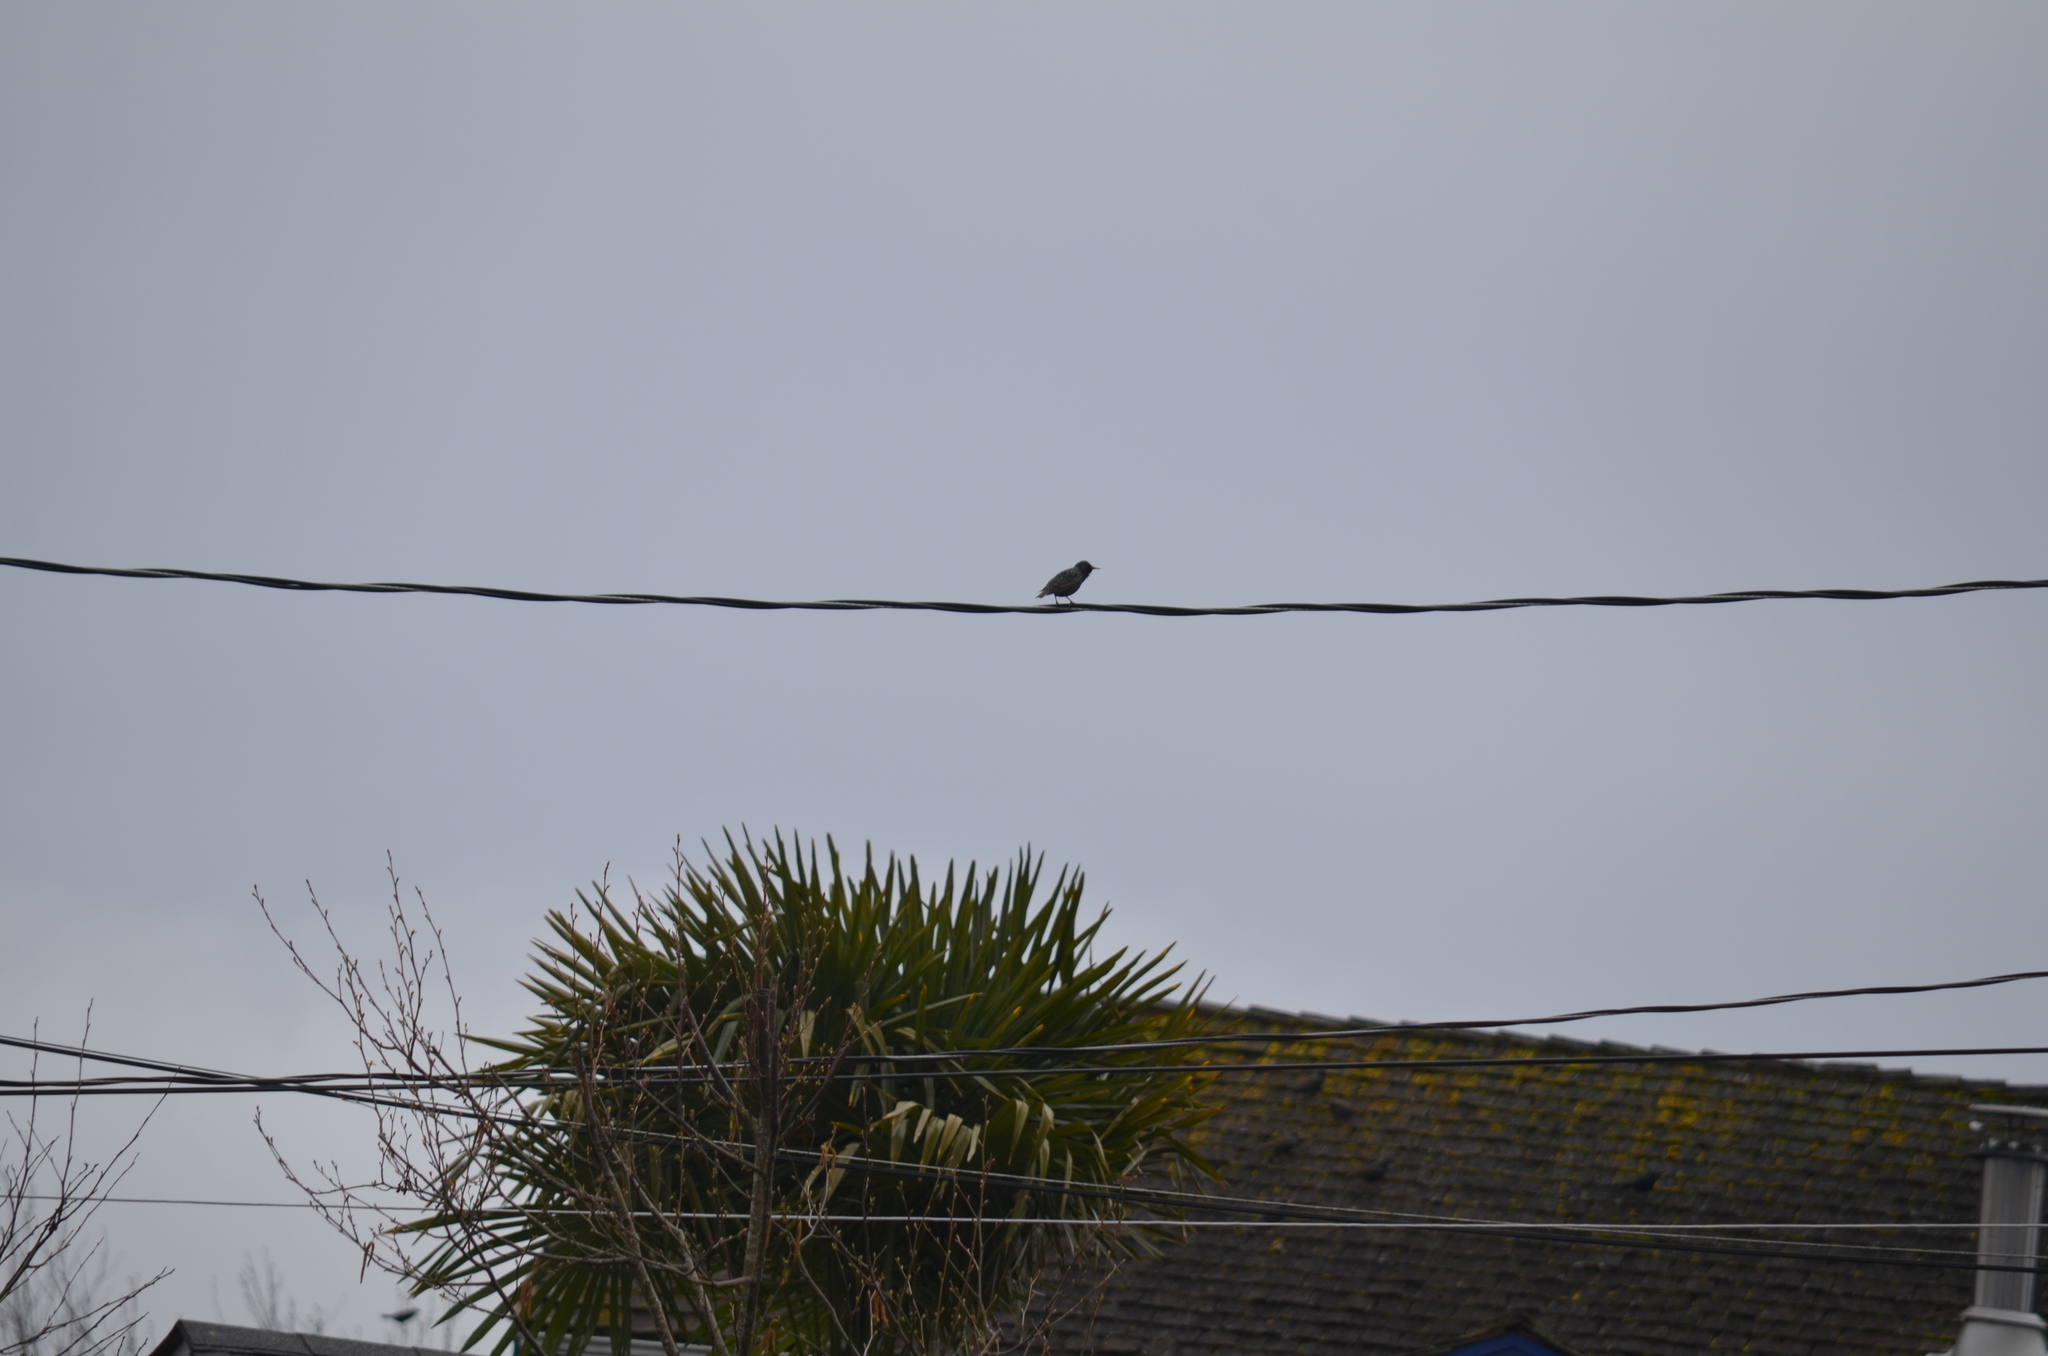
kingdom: Animalia
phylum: Chordata
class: Aves
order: Passeriformes
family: Sturnidae
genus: Sturnus
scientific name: Sturnus vulgaris
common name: Common starling
